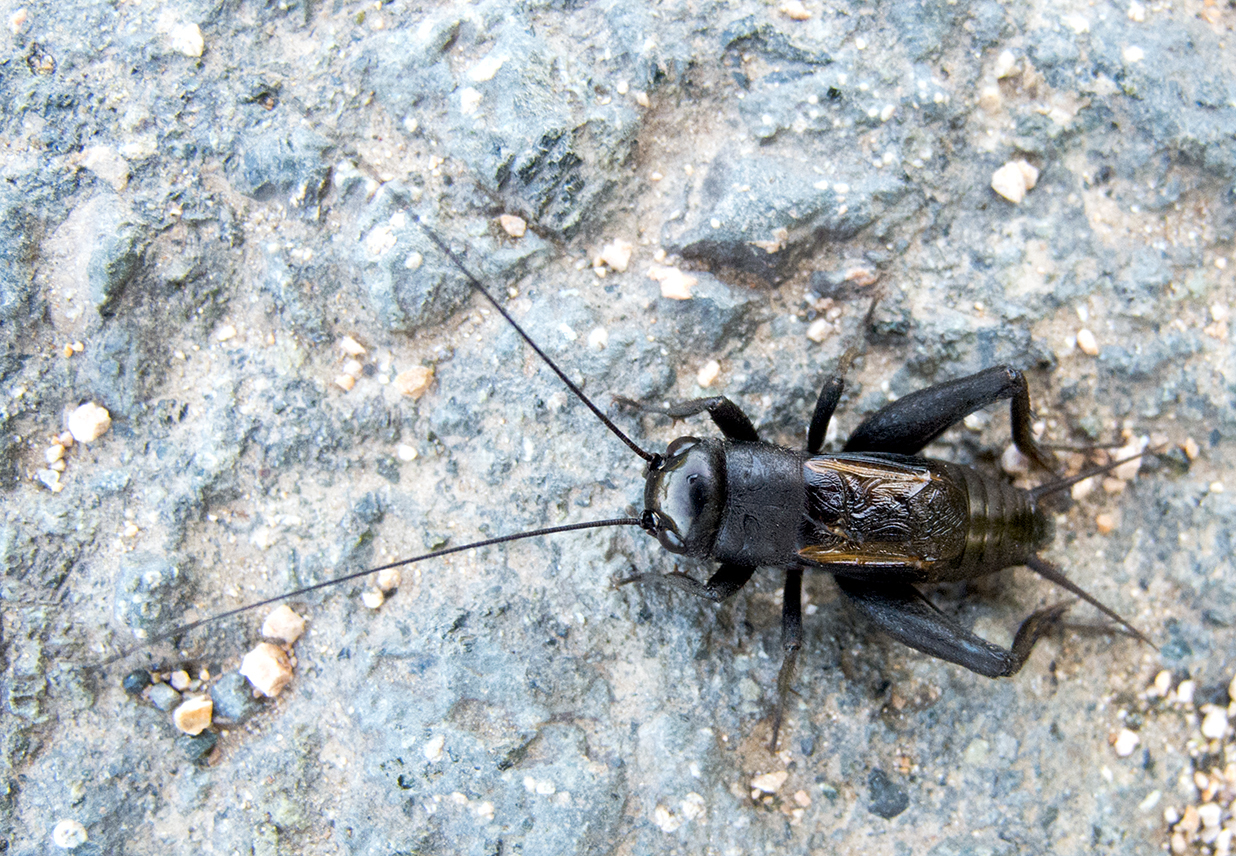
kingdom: Animalia
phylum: Arthropoda
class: Insecta
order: Orthoptera
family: Gryllidae
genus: Gryllus
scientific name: Gryllus campestris
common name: Field cricket
